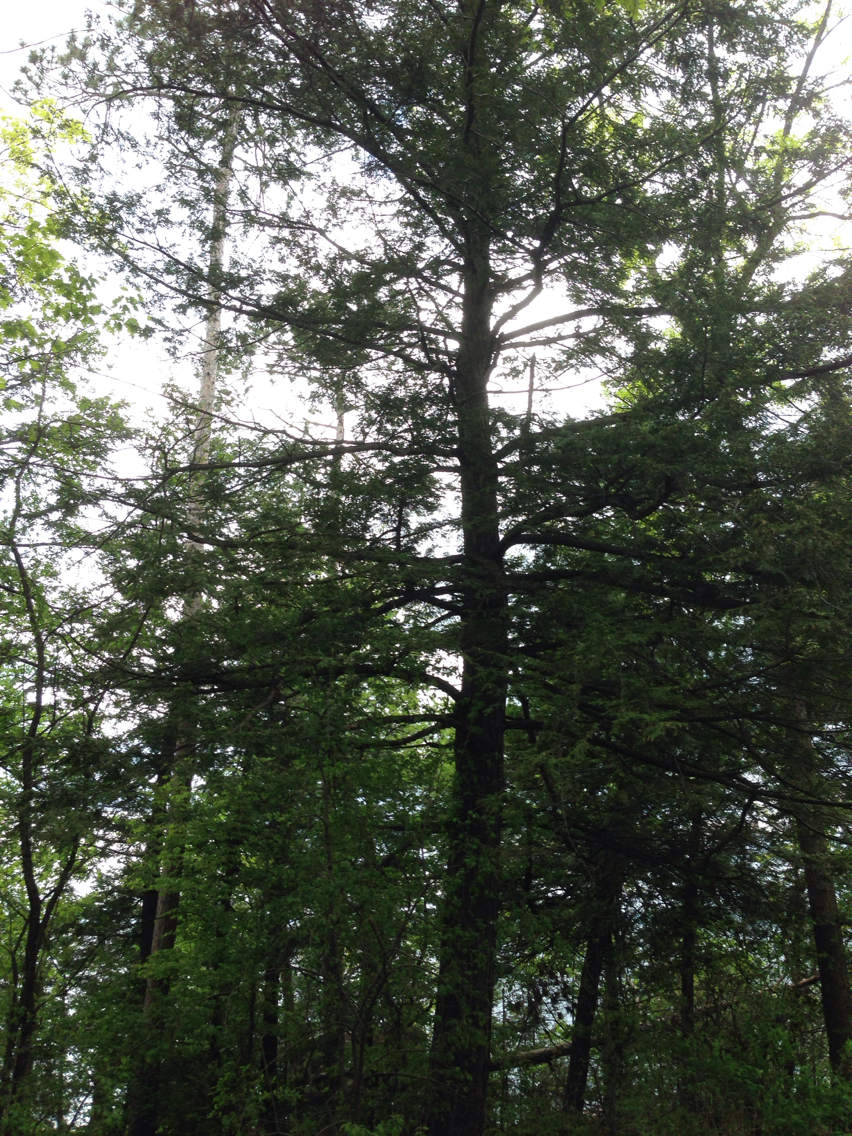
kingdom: Plantae
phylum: Tracheophyta
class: Pinopsida
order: Pinales
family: Pinaceae
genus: Tsuga
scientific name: Tsuga canadensis
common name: Eastern hemlock
